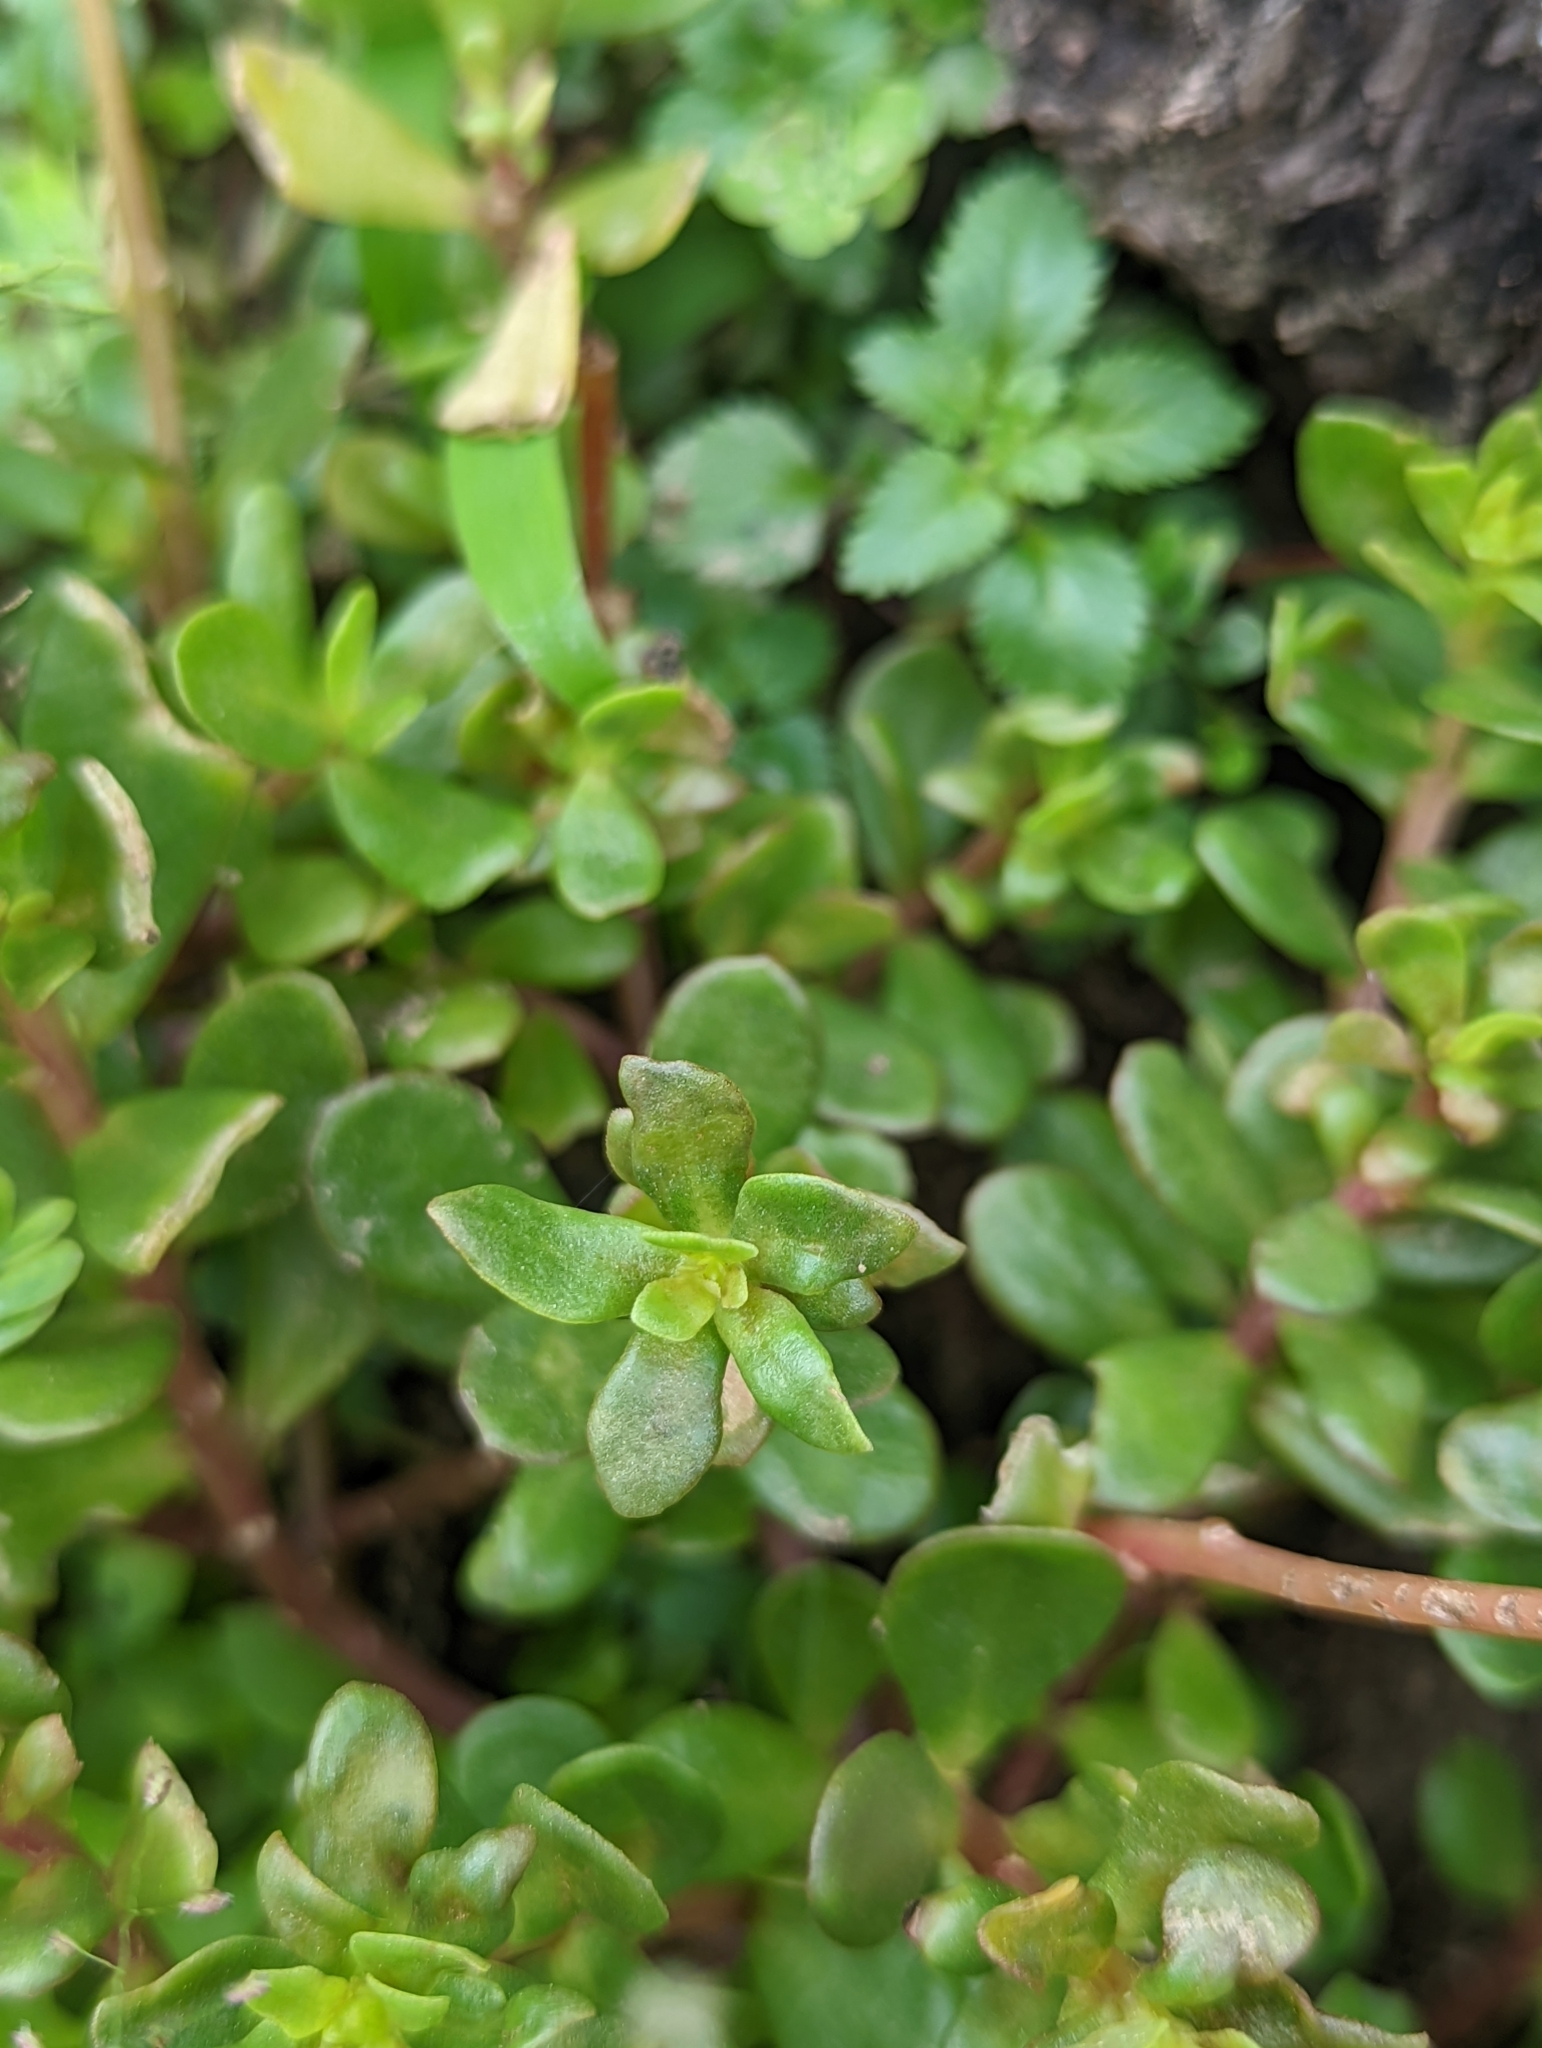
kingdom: Plantae
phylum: Tracheophyta
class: Magnoliopsida
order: Caryophyllales
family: Portulacaceae
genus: Portulaca
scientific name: Portulaca umbraticola
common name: Wingpod purslane
